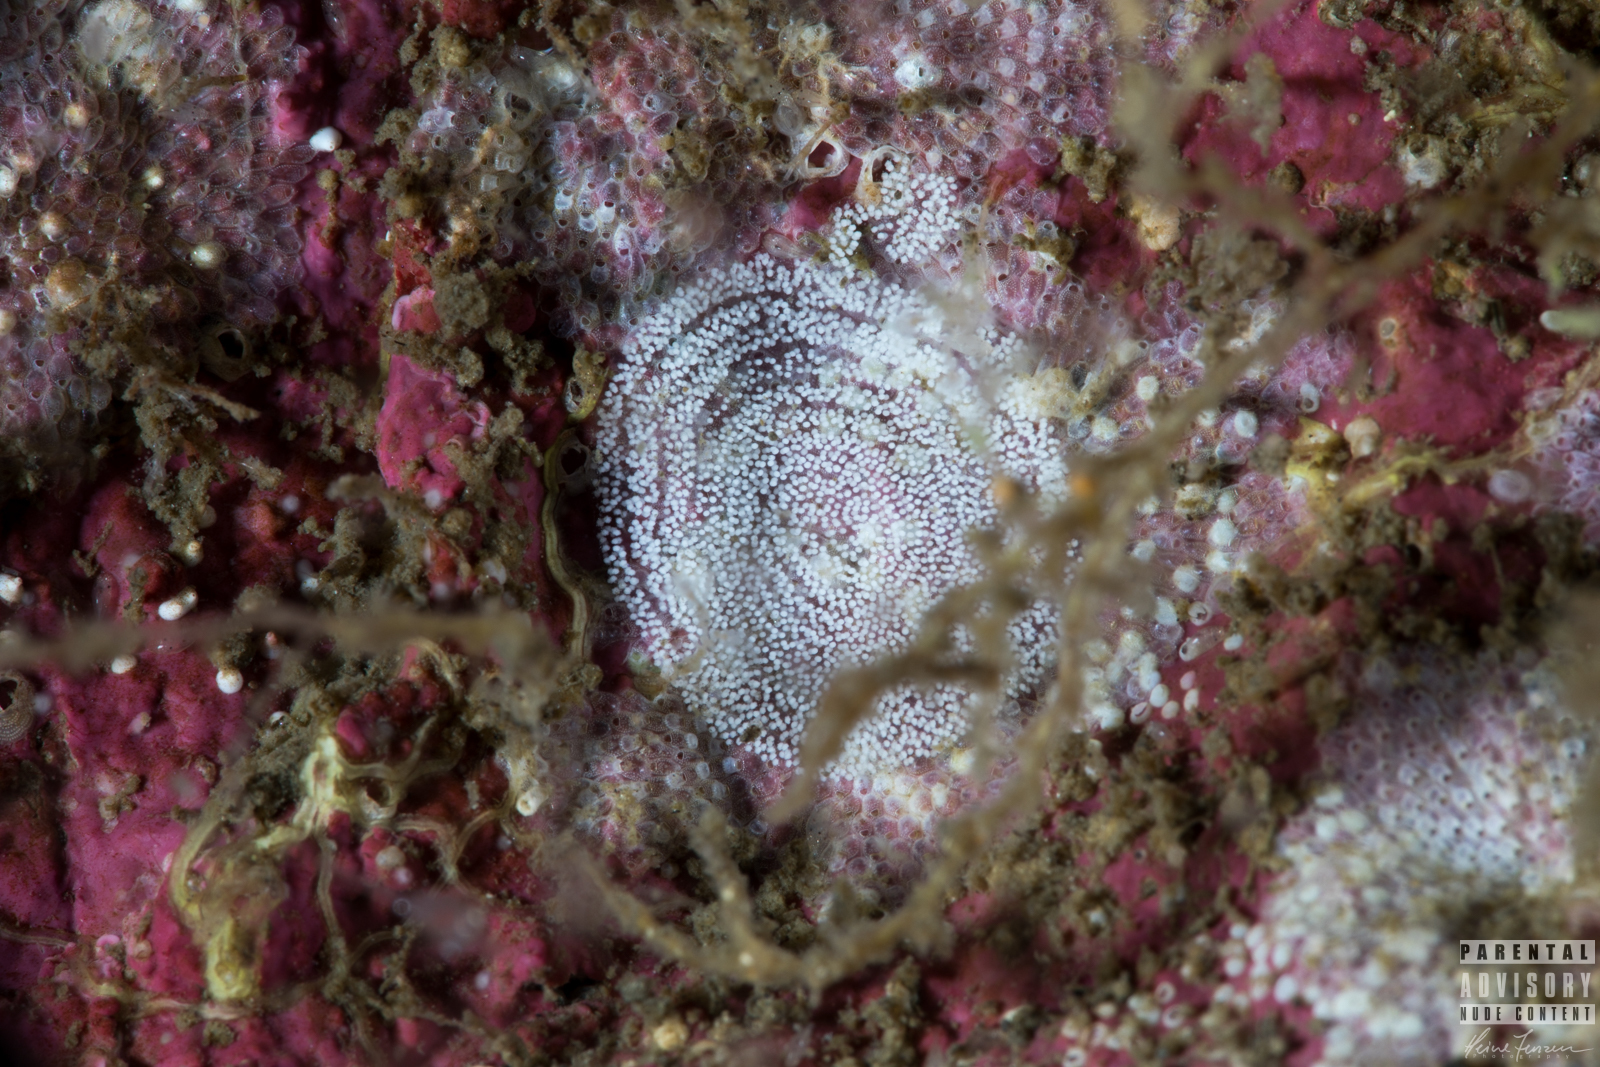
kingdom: Animalia
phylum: Mollusca
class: Gastropoda
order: Nudibranchia
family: Onchidorididae
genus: Atalodoris
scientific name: Atalodoris pusilla
